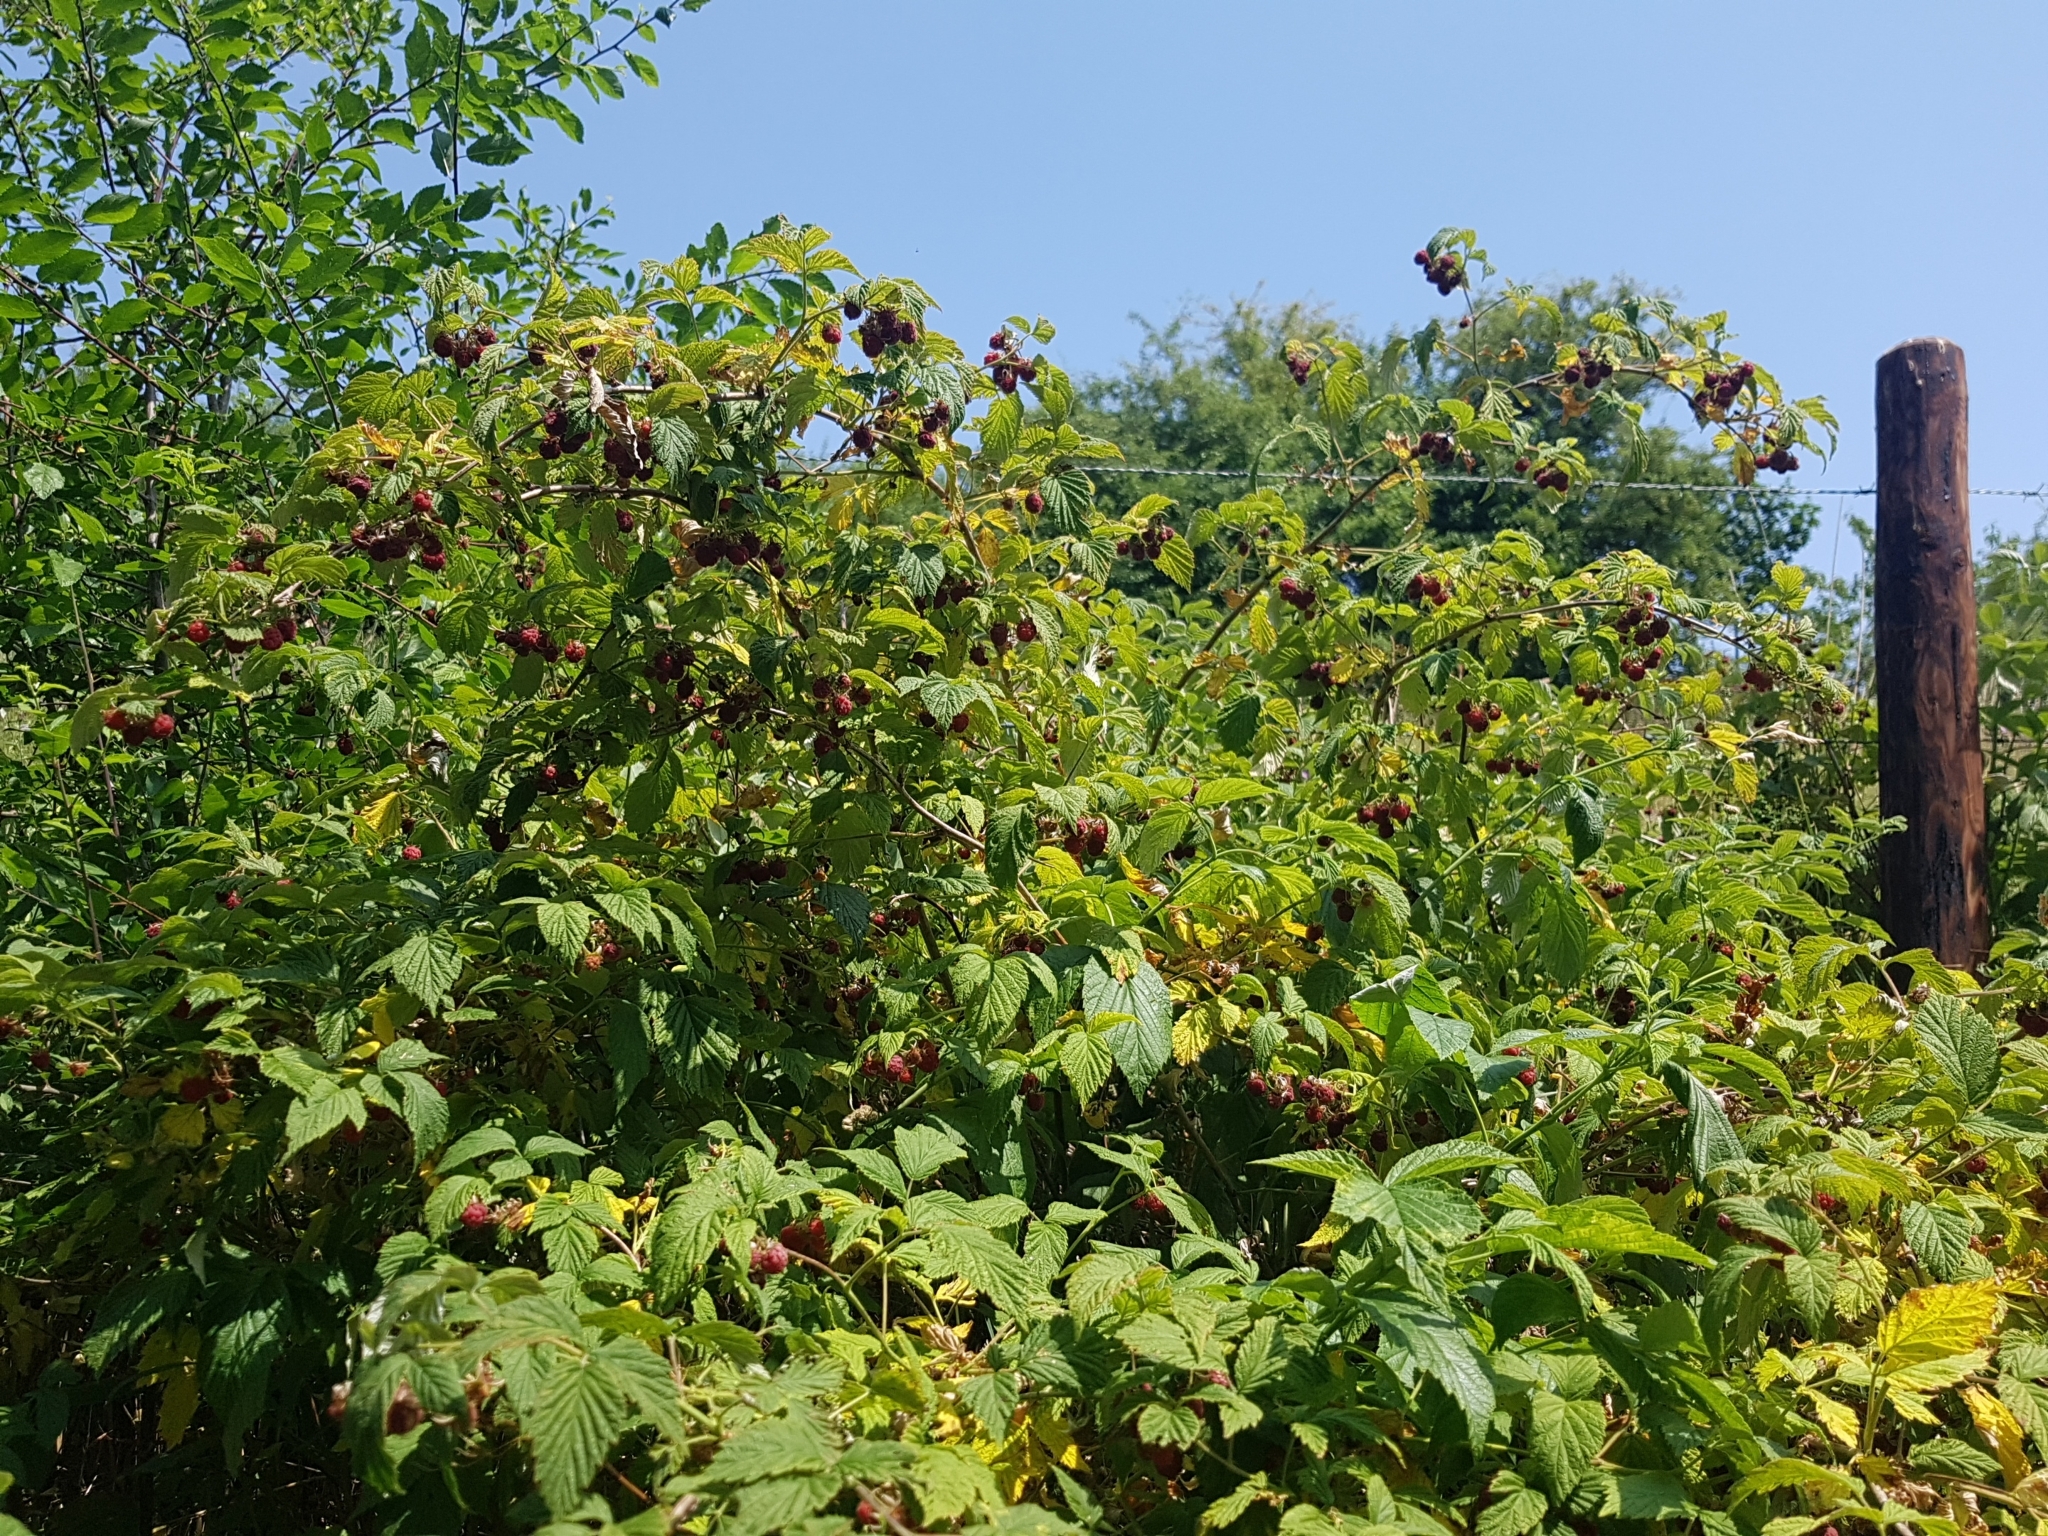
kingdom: Plantae
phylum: Tracheophyta
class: Magnoliopsida
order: Rosales
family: Rosaceae
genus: Rubus
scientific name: Rubus idaeus
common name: Raspberry
